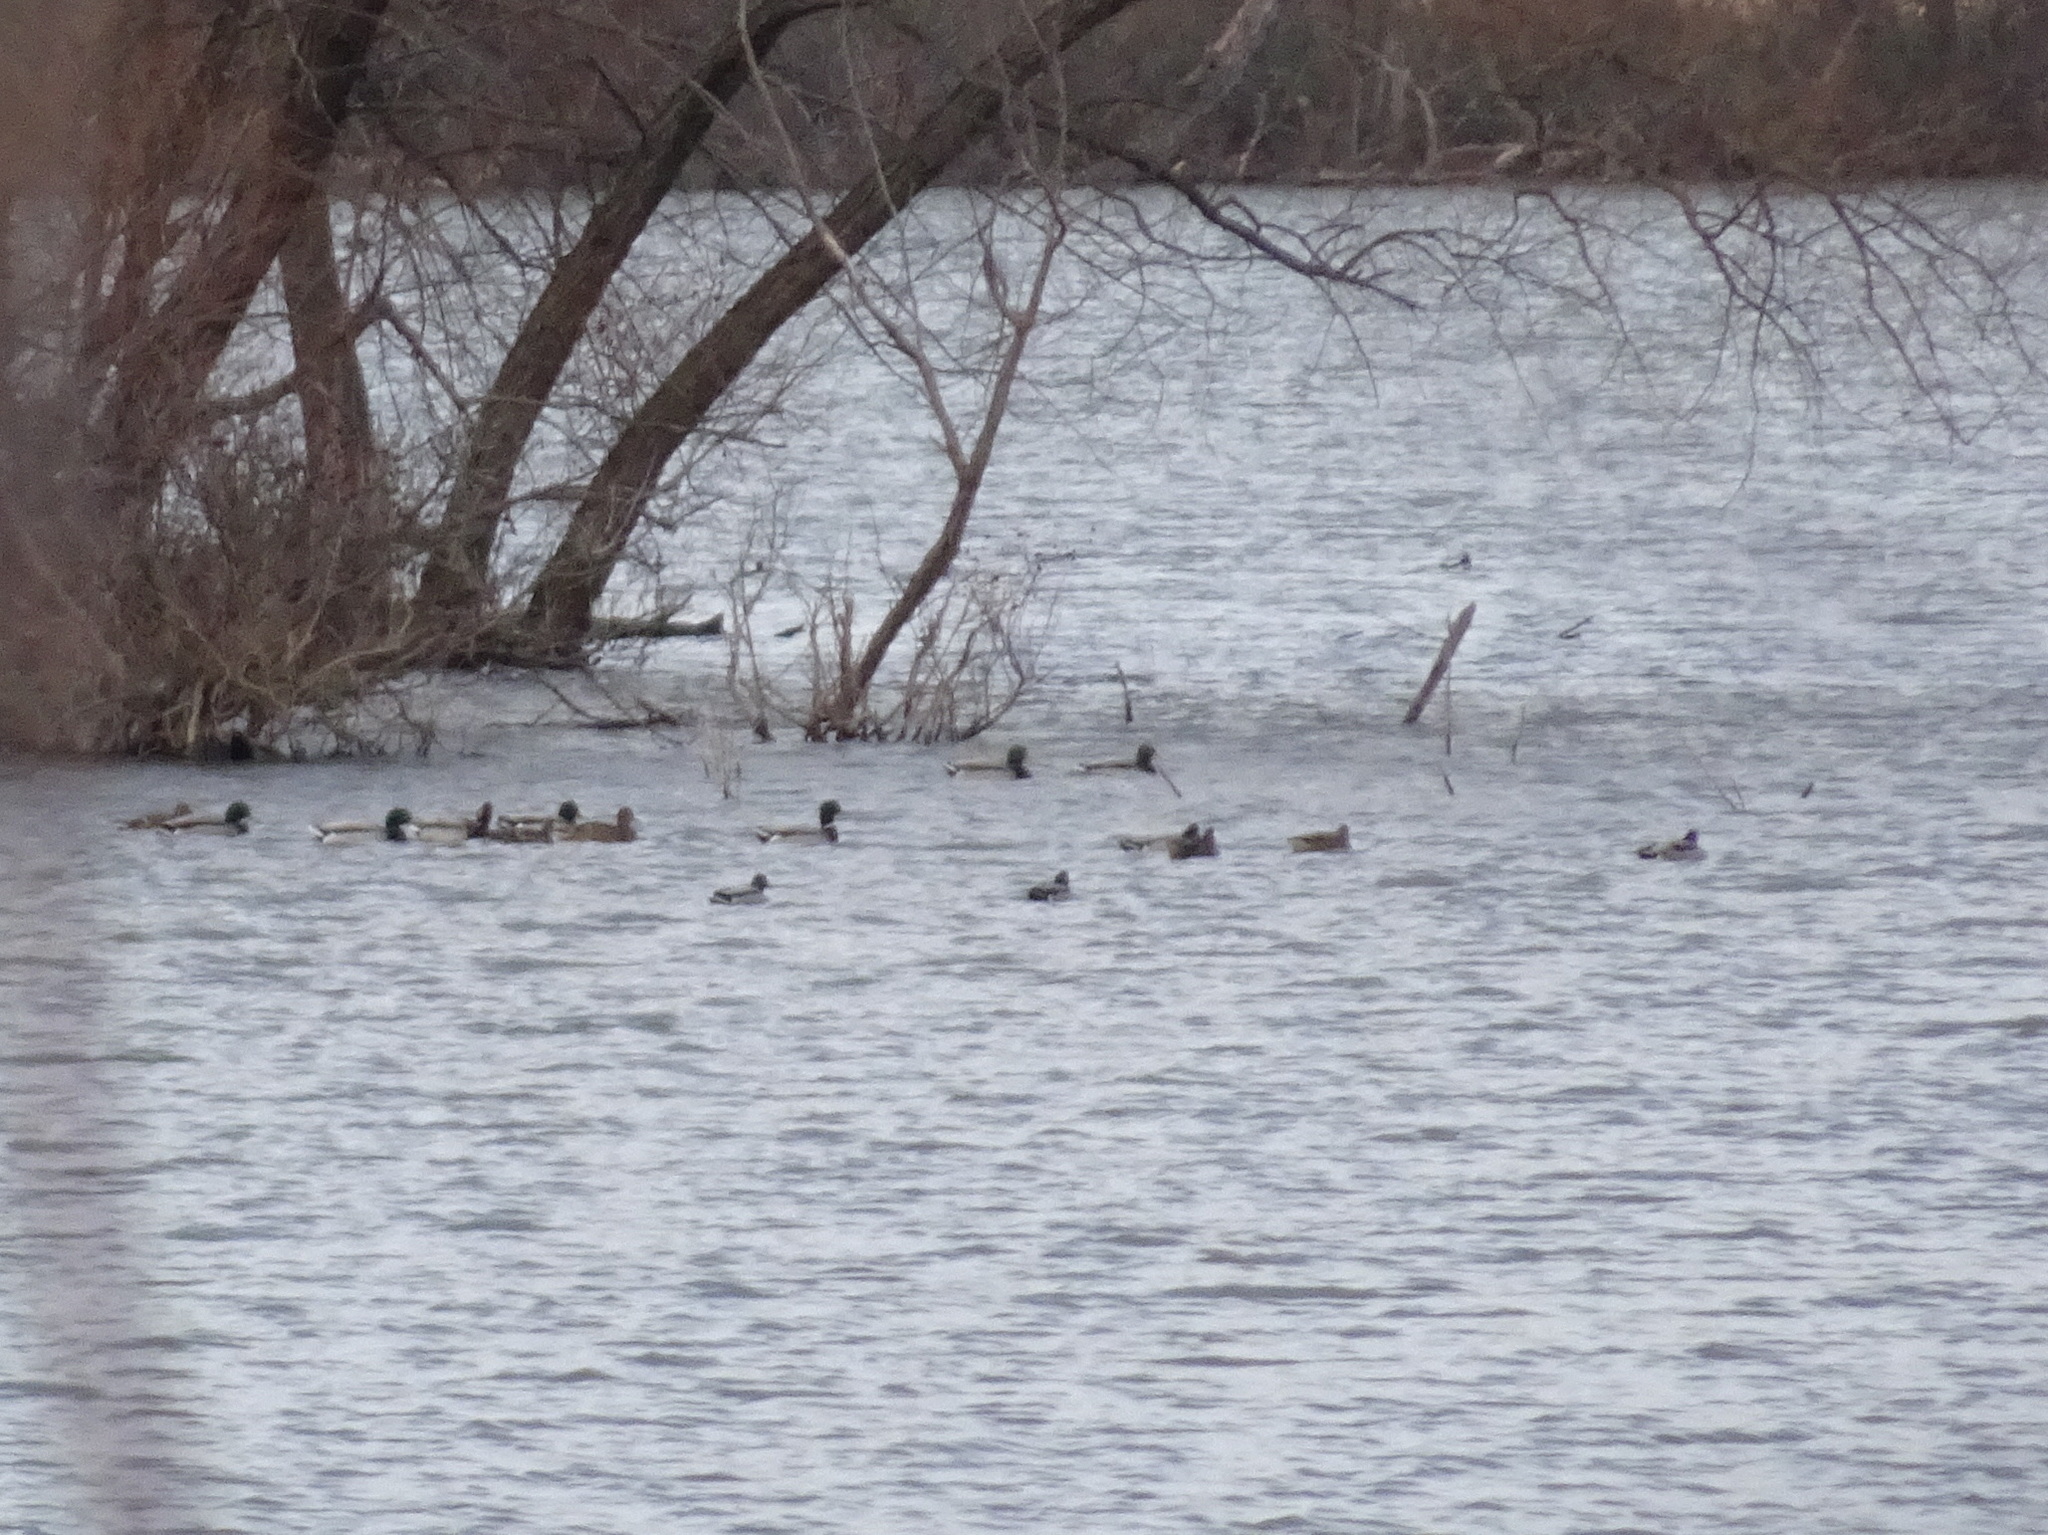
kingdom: Animalia
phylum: Chordata
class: Aves
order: Anseriformes
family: Anatidae
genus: Anas
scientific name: Anas platyrhynchos
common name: Mallard
